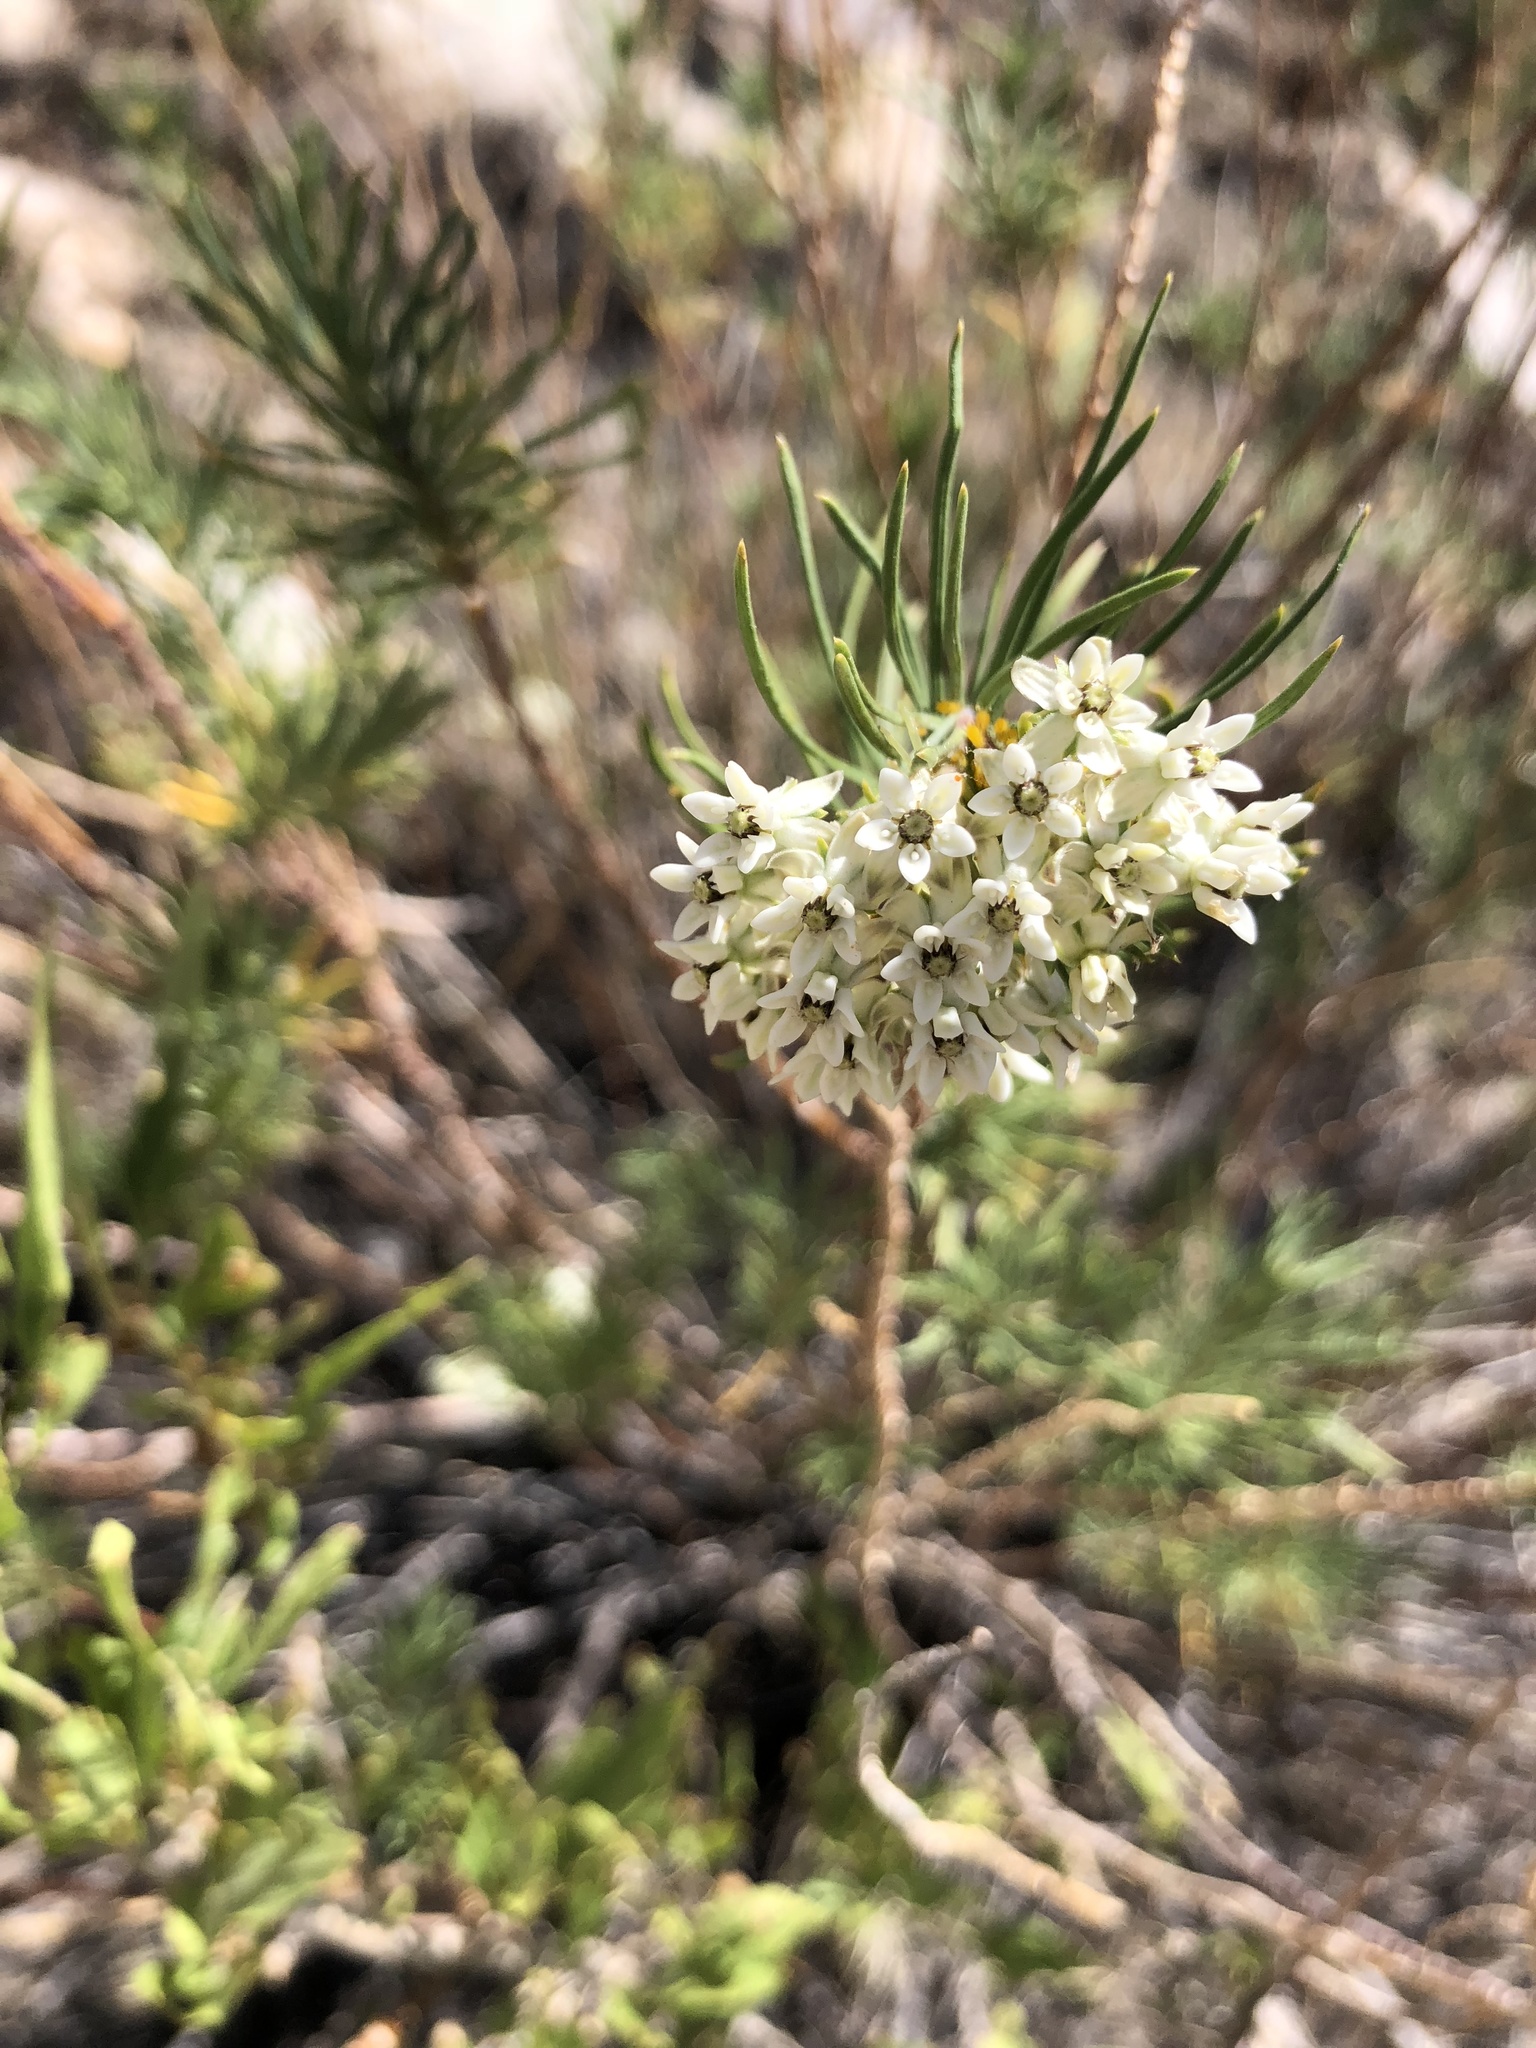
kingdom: Plantae
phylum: Tracheophyta
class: Magnoliopsida
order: Gentianales
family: Apocynaceae
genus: Asclepias
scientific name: Asclepias linaria
